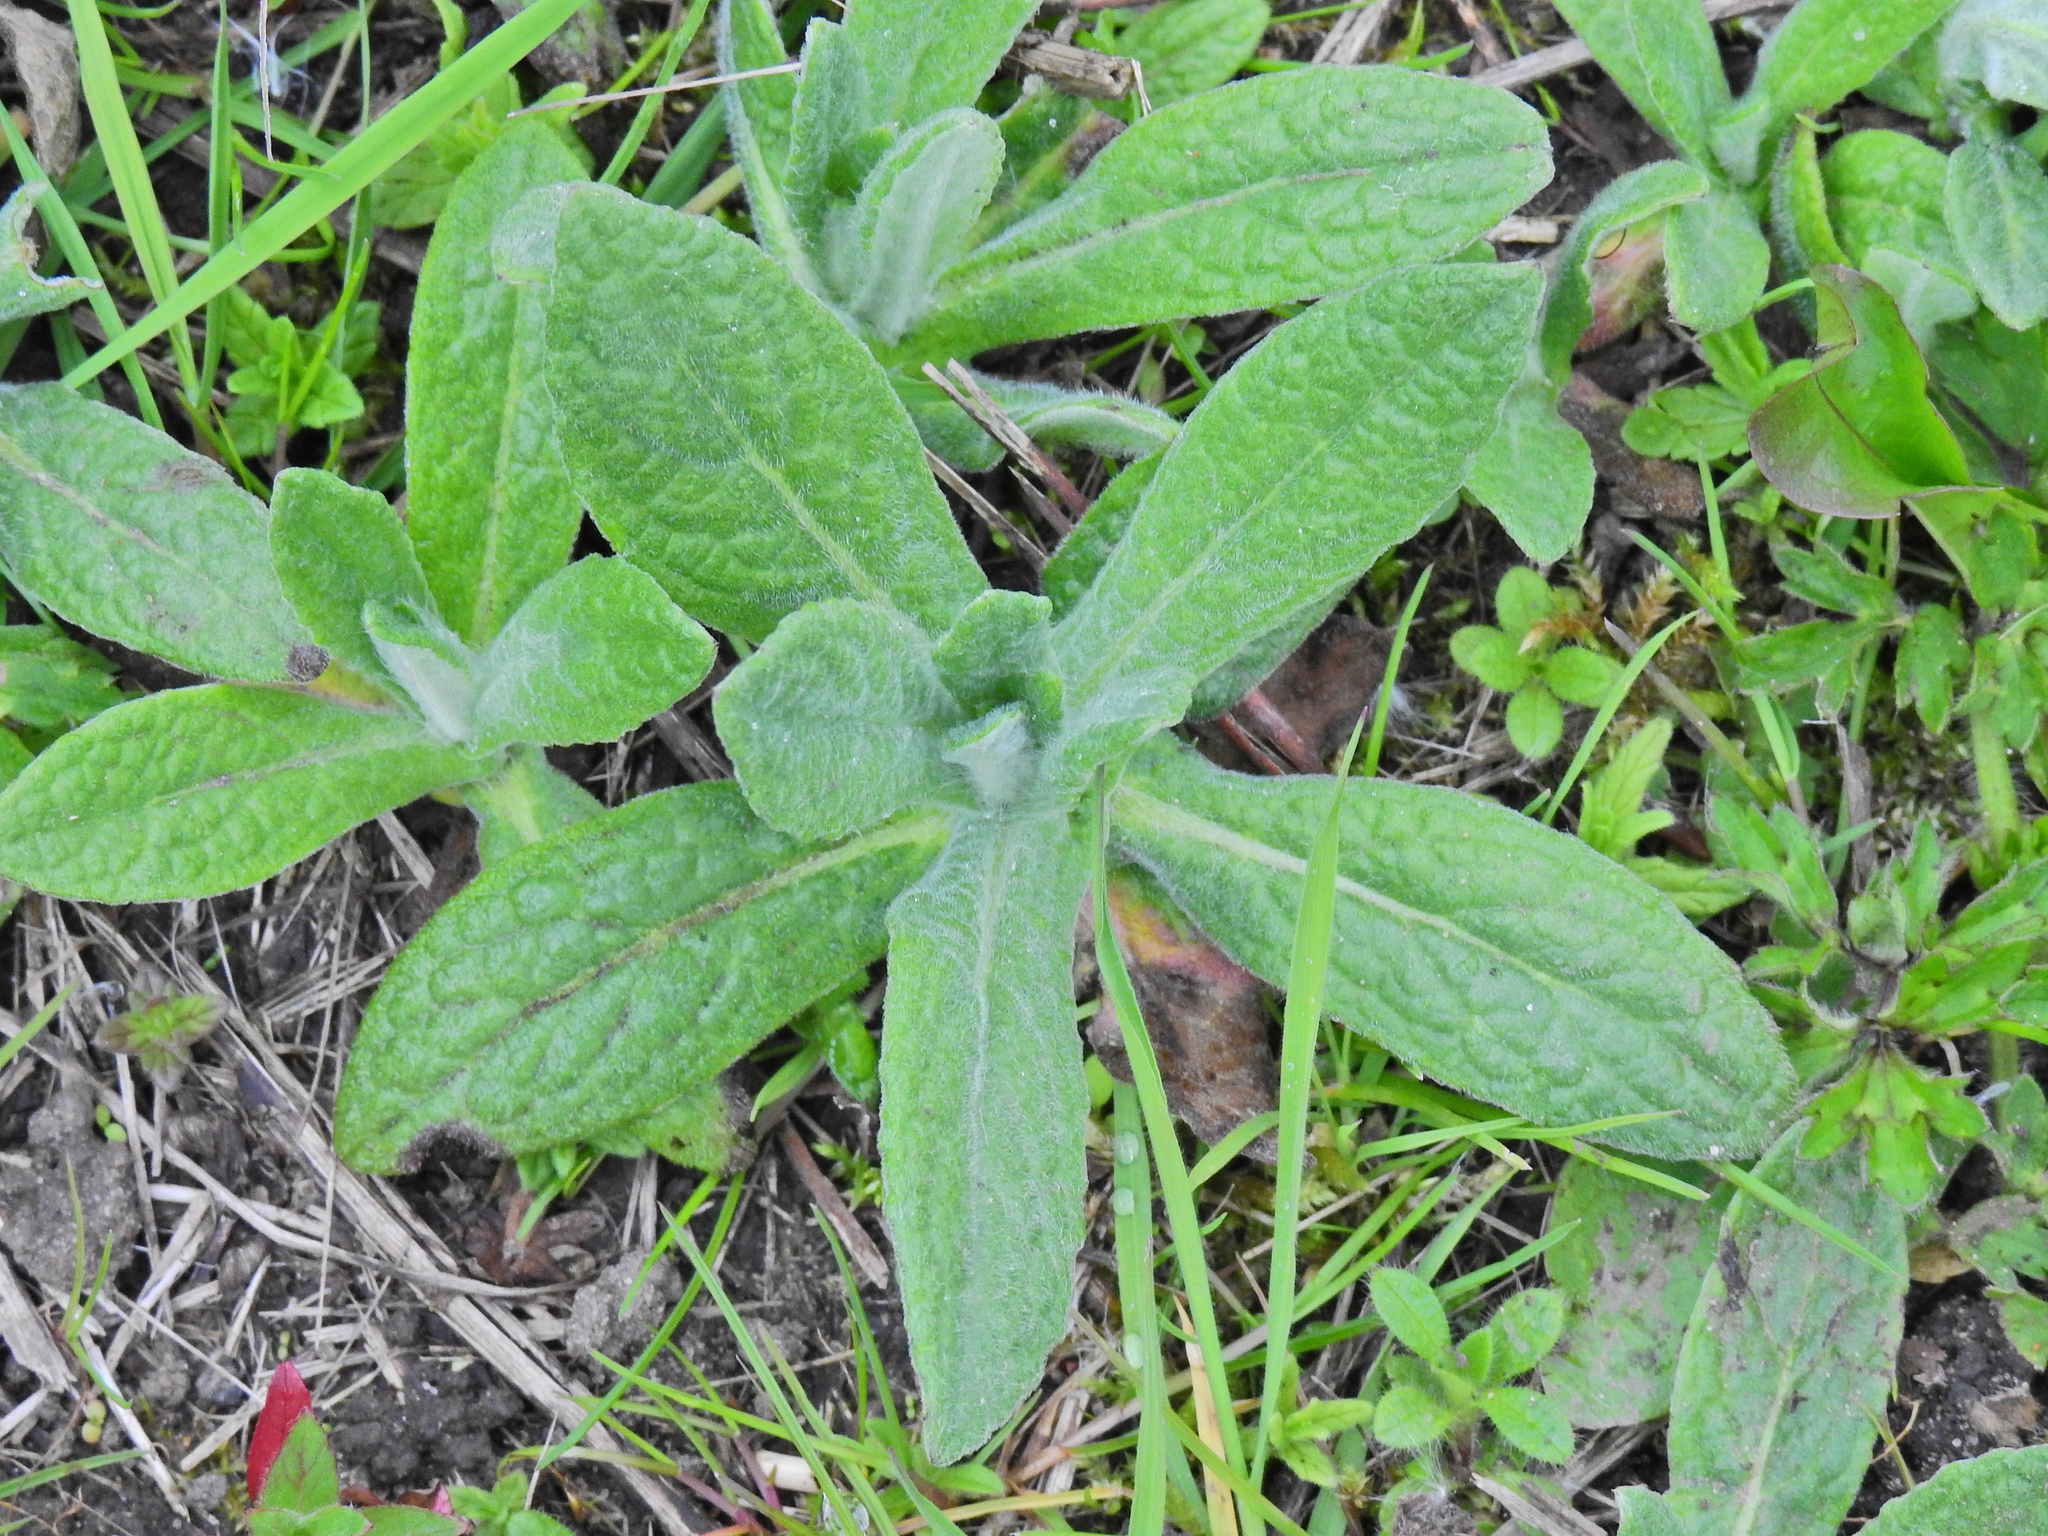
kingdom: Plantae
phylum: Tracheophyta
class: Magnoliopsida
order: Asterales
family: Asteraceae
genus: Pulicaria
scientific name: Pulicaria dysenterica
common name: Common fleabane
